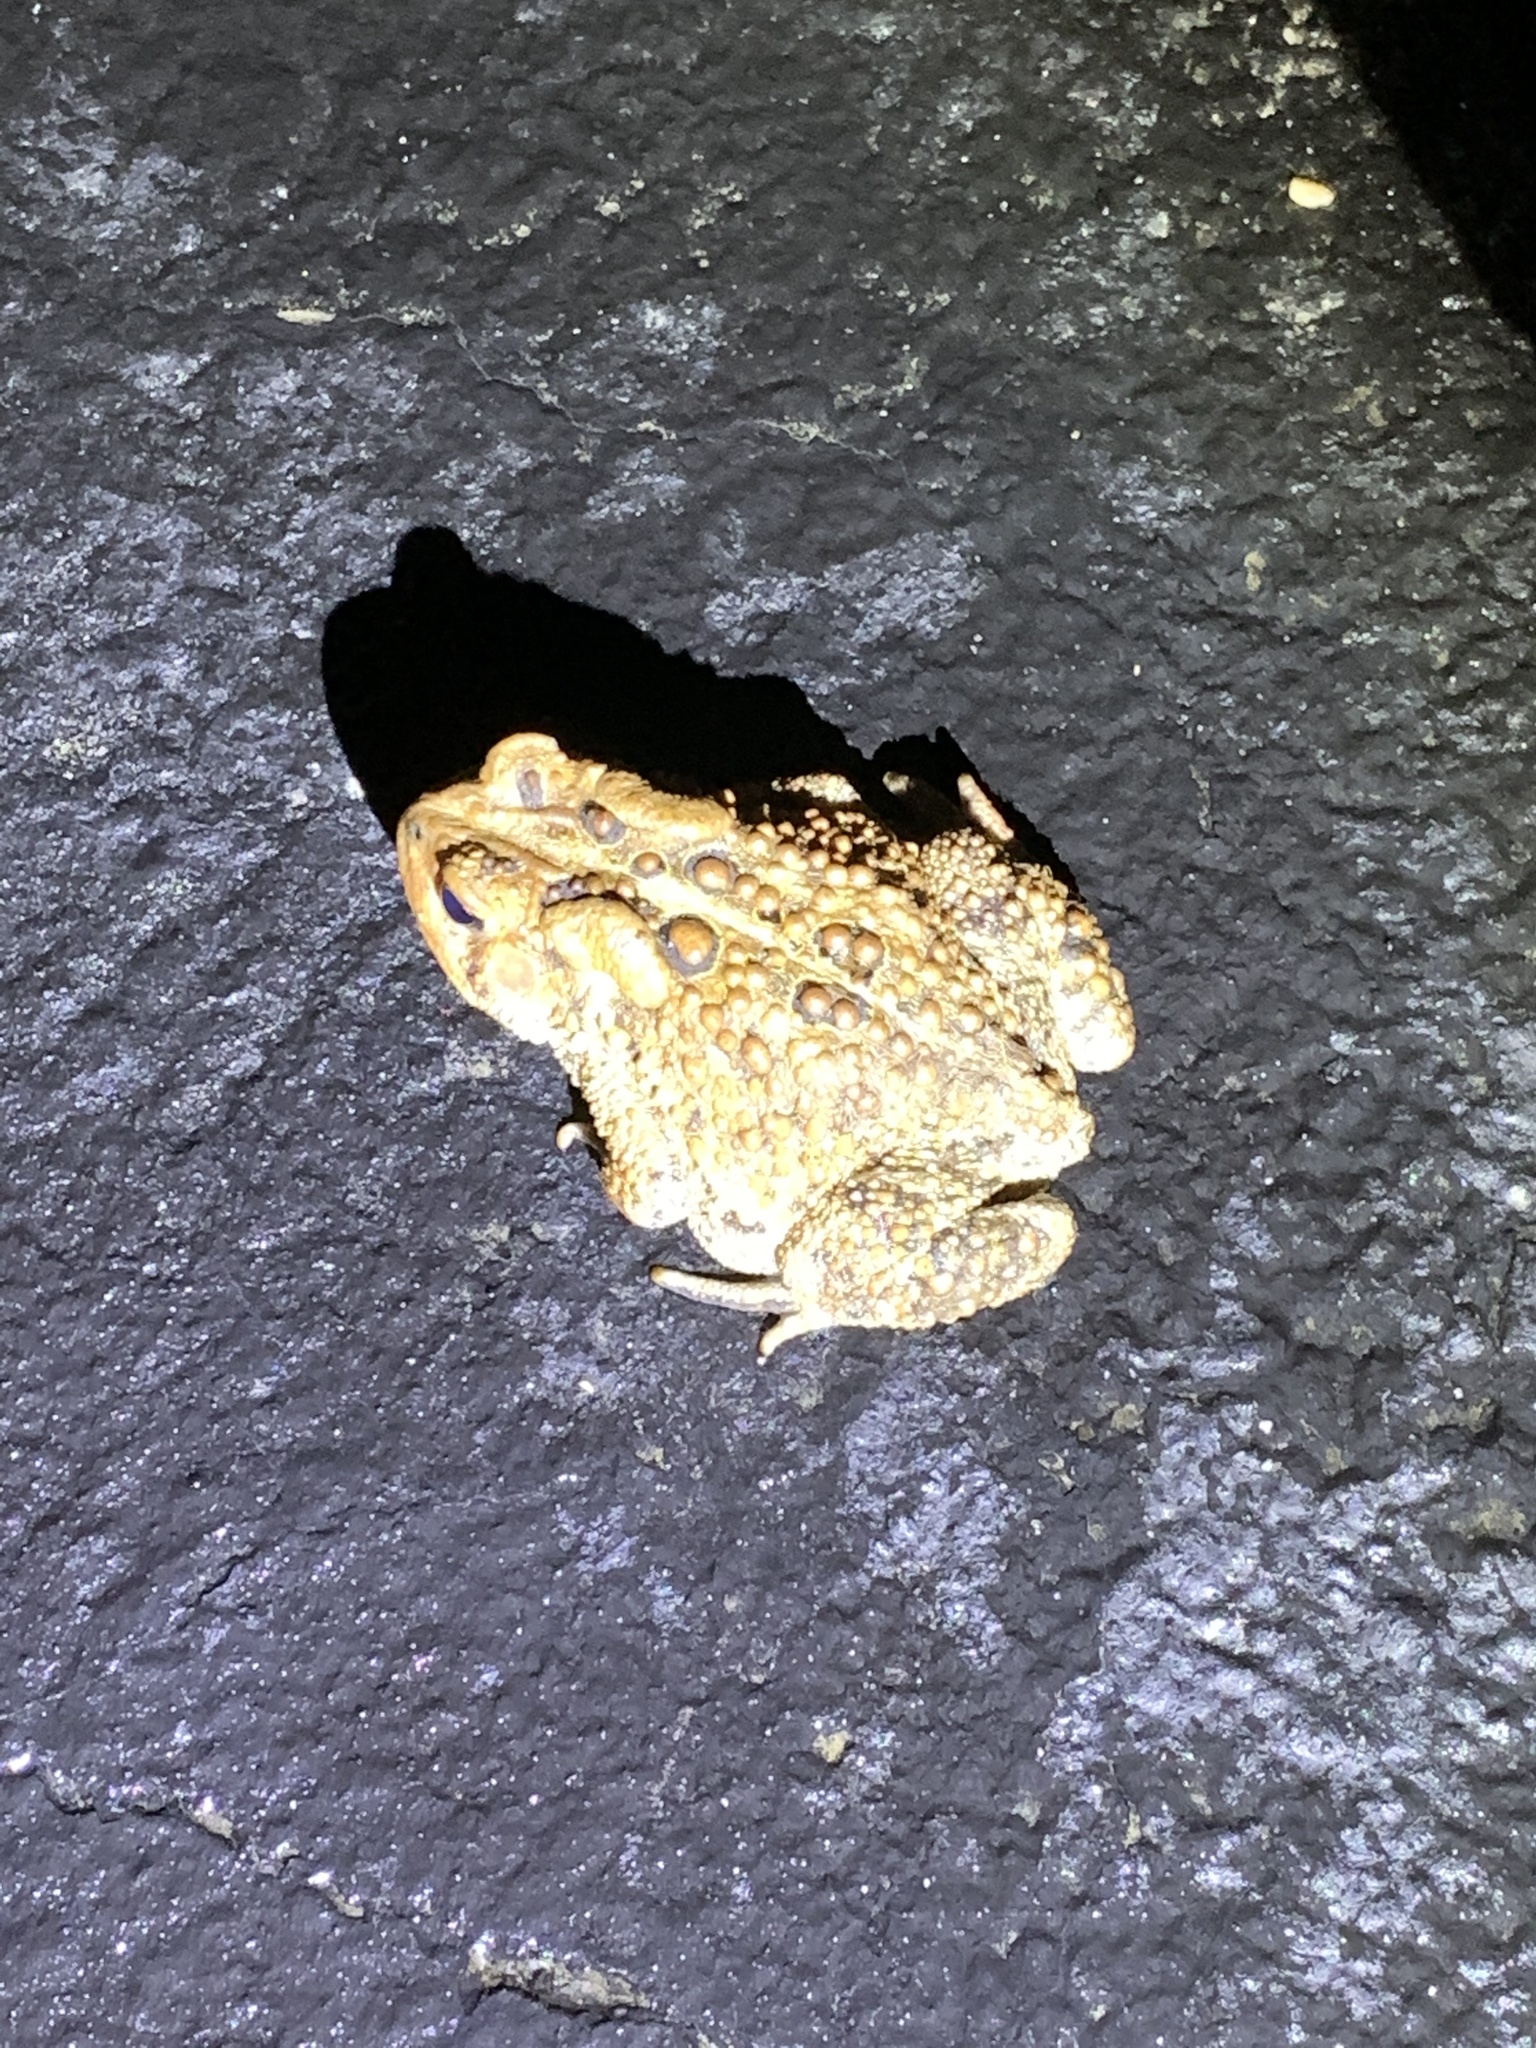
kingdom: Animalia
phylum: Chordata
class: Amphibia
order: Anura
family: Bufonidae
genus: Anaxyrus
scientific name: Anaxyrus americanus
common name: American toad
